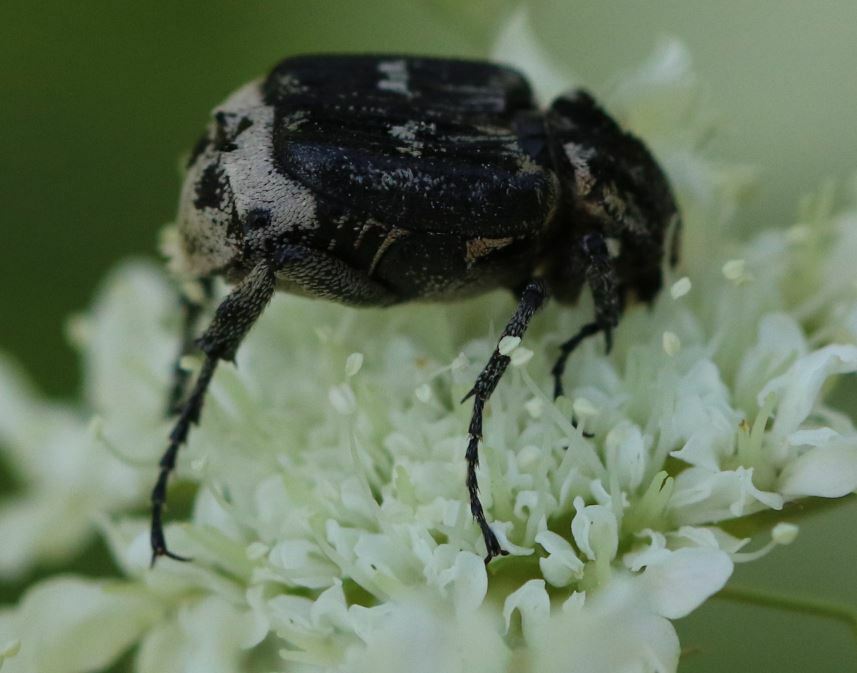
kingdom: Animalia
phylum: Arthropoda
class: Insecta
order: Coleoptera
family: Scarabaeidae
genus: Valgus
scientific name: Valgus hemipterus
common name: Bug flower chafer
